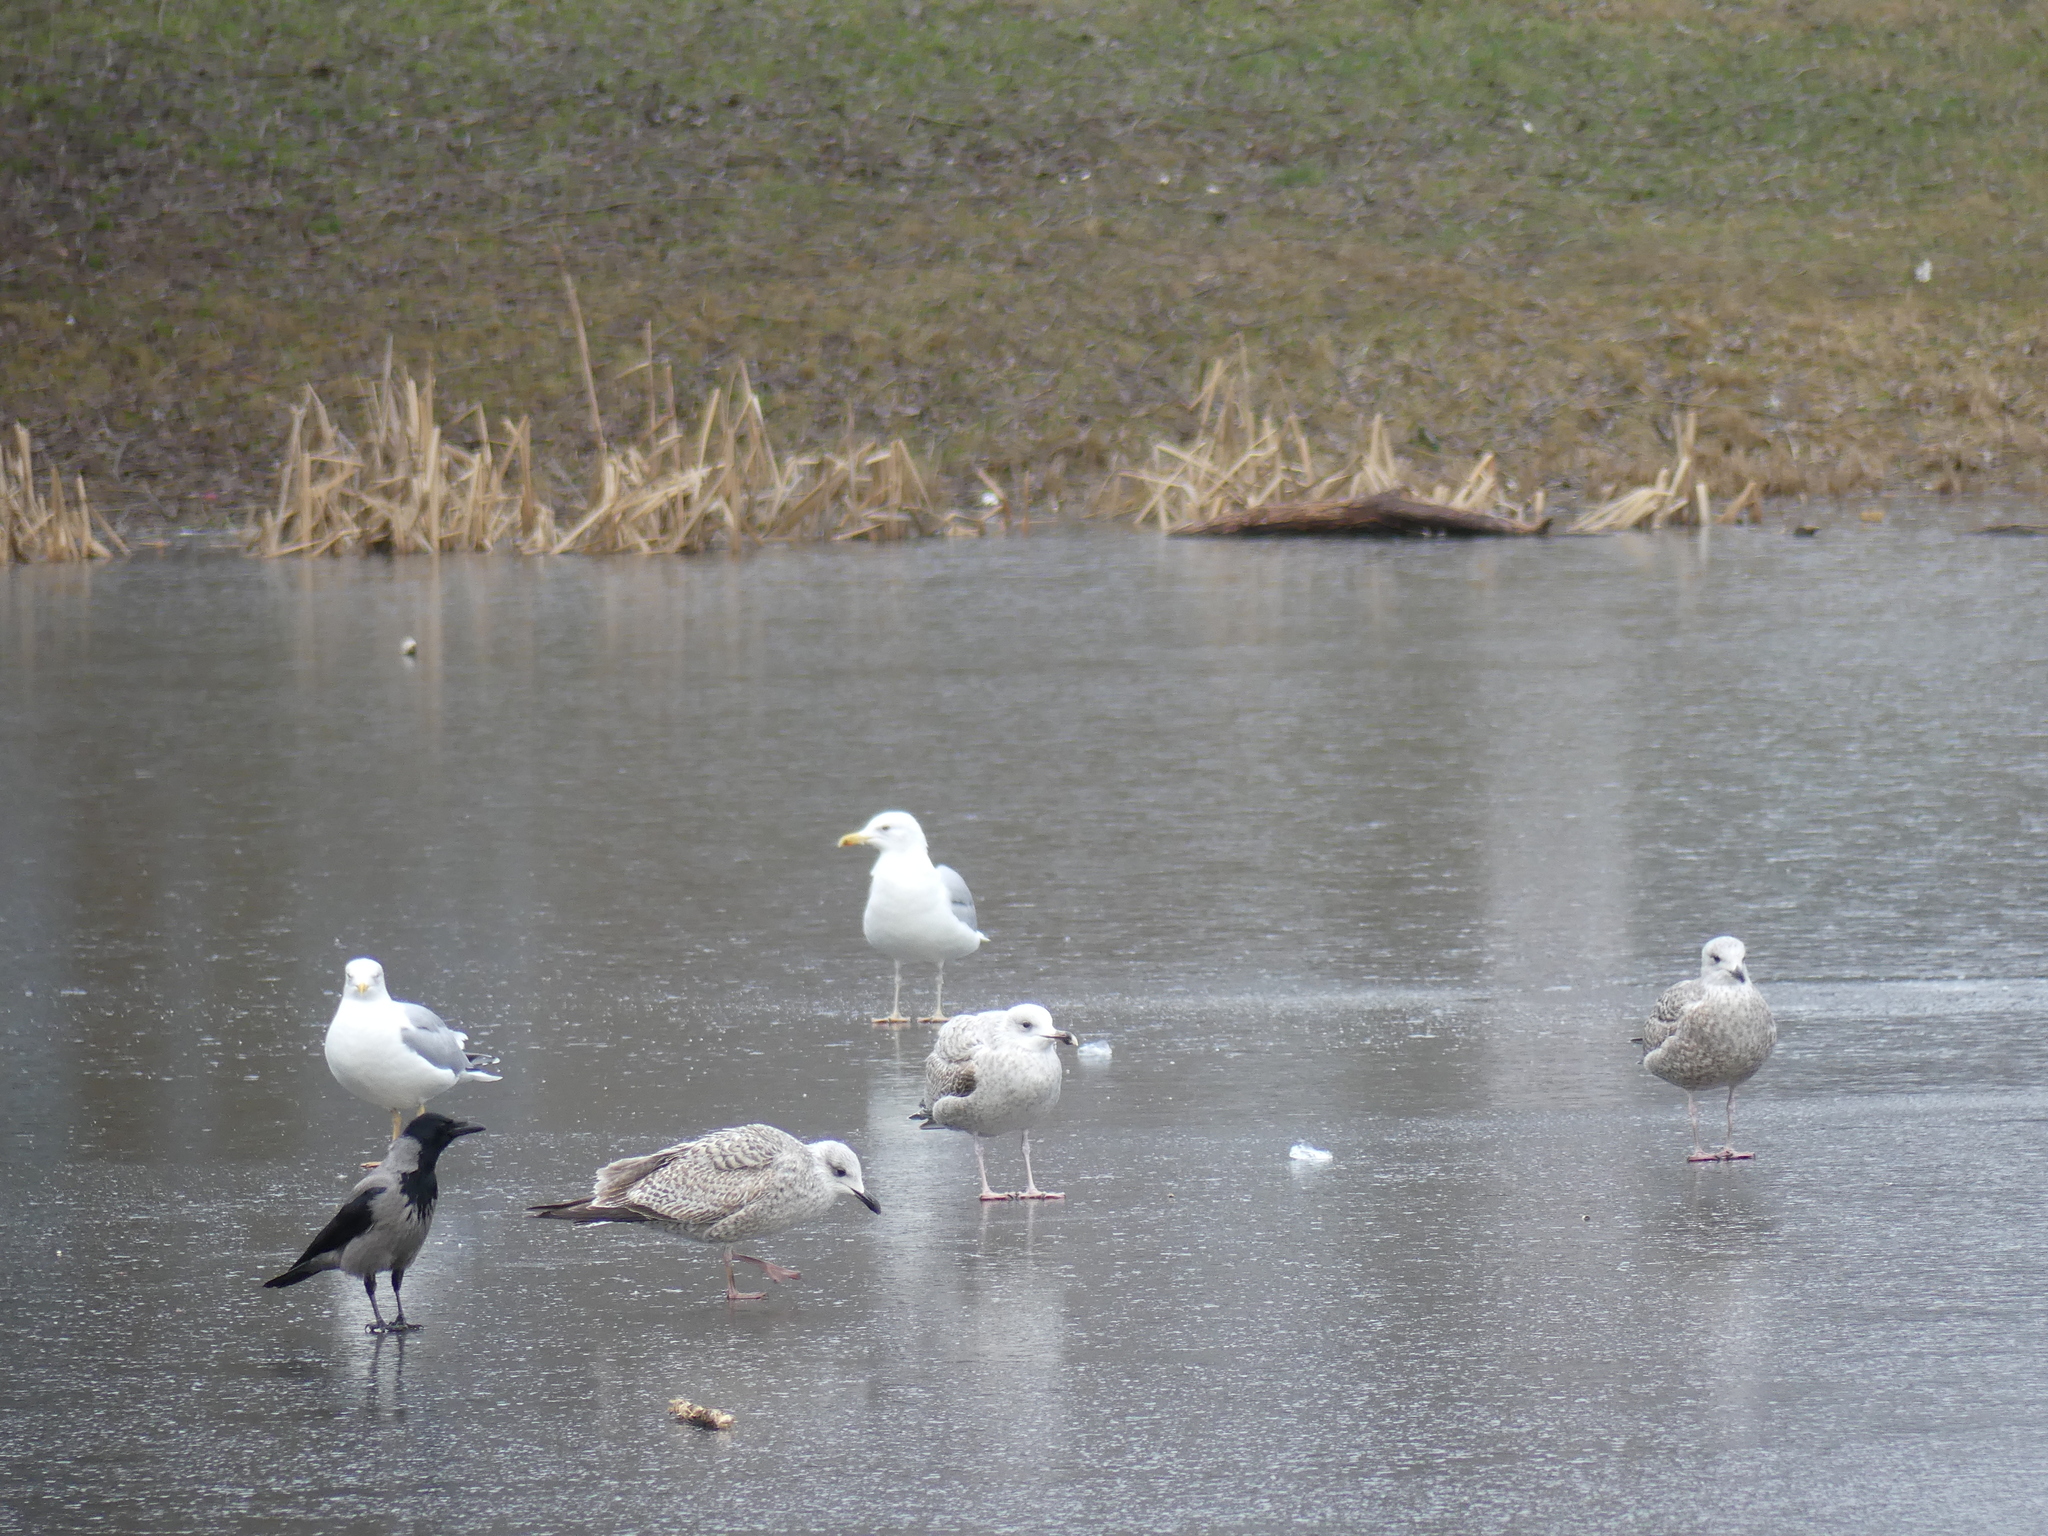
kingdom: Animalia
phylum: Chordata
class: Aves
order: Charadriiformes
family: Laridae
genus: Larus
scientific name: Larus argentatus
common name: Herring gull
